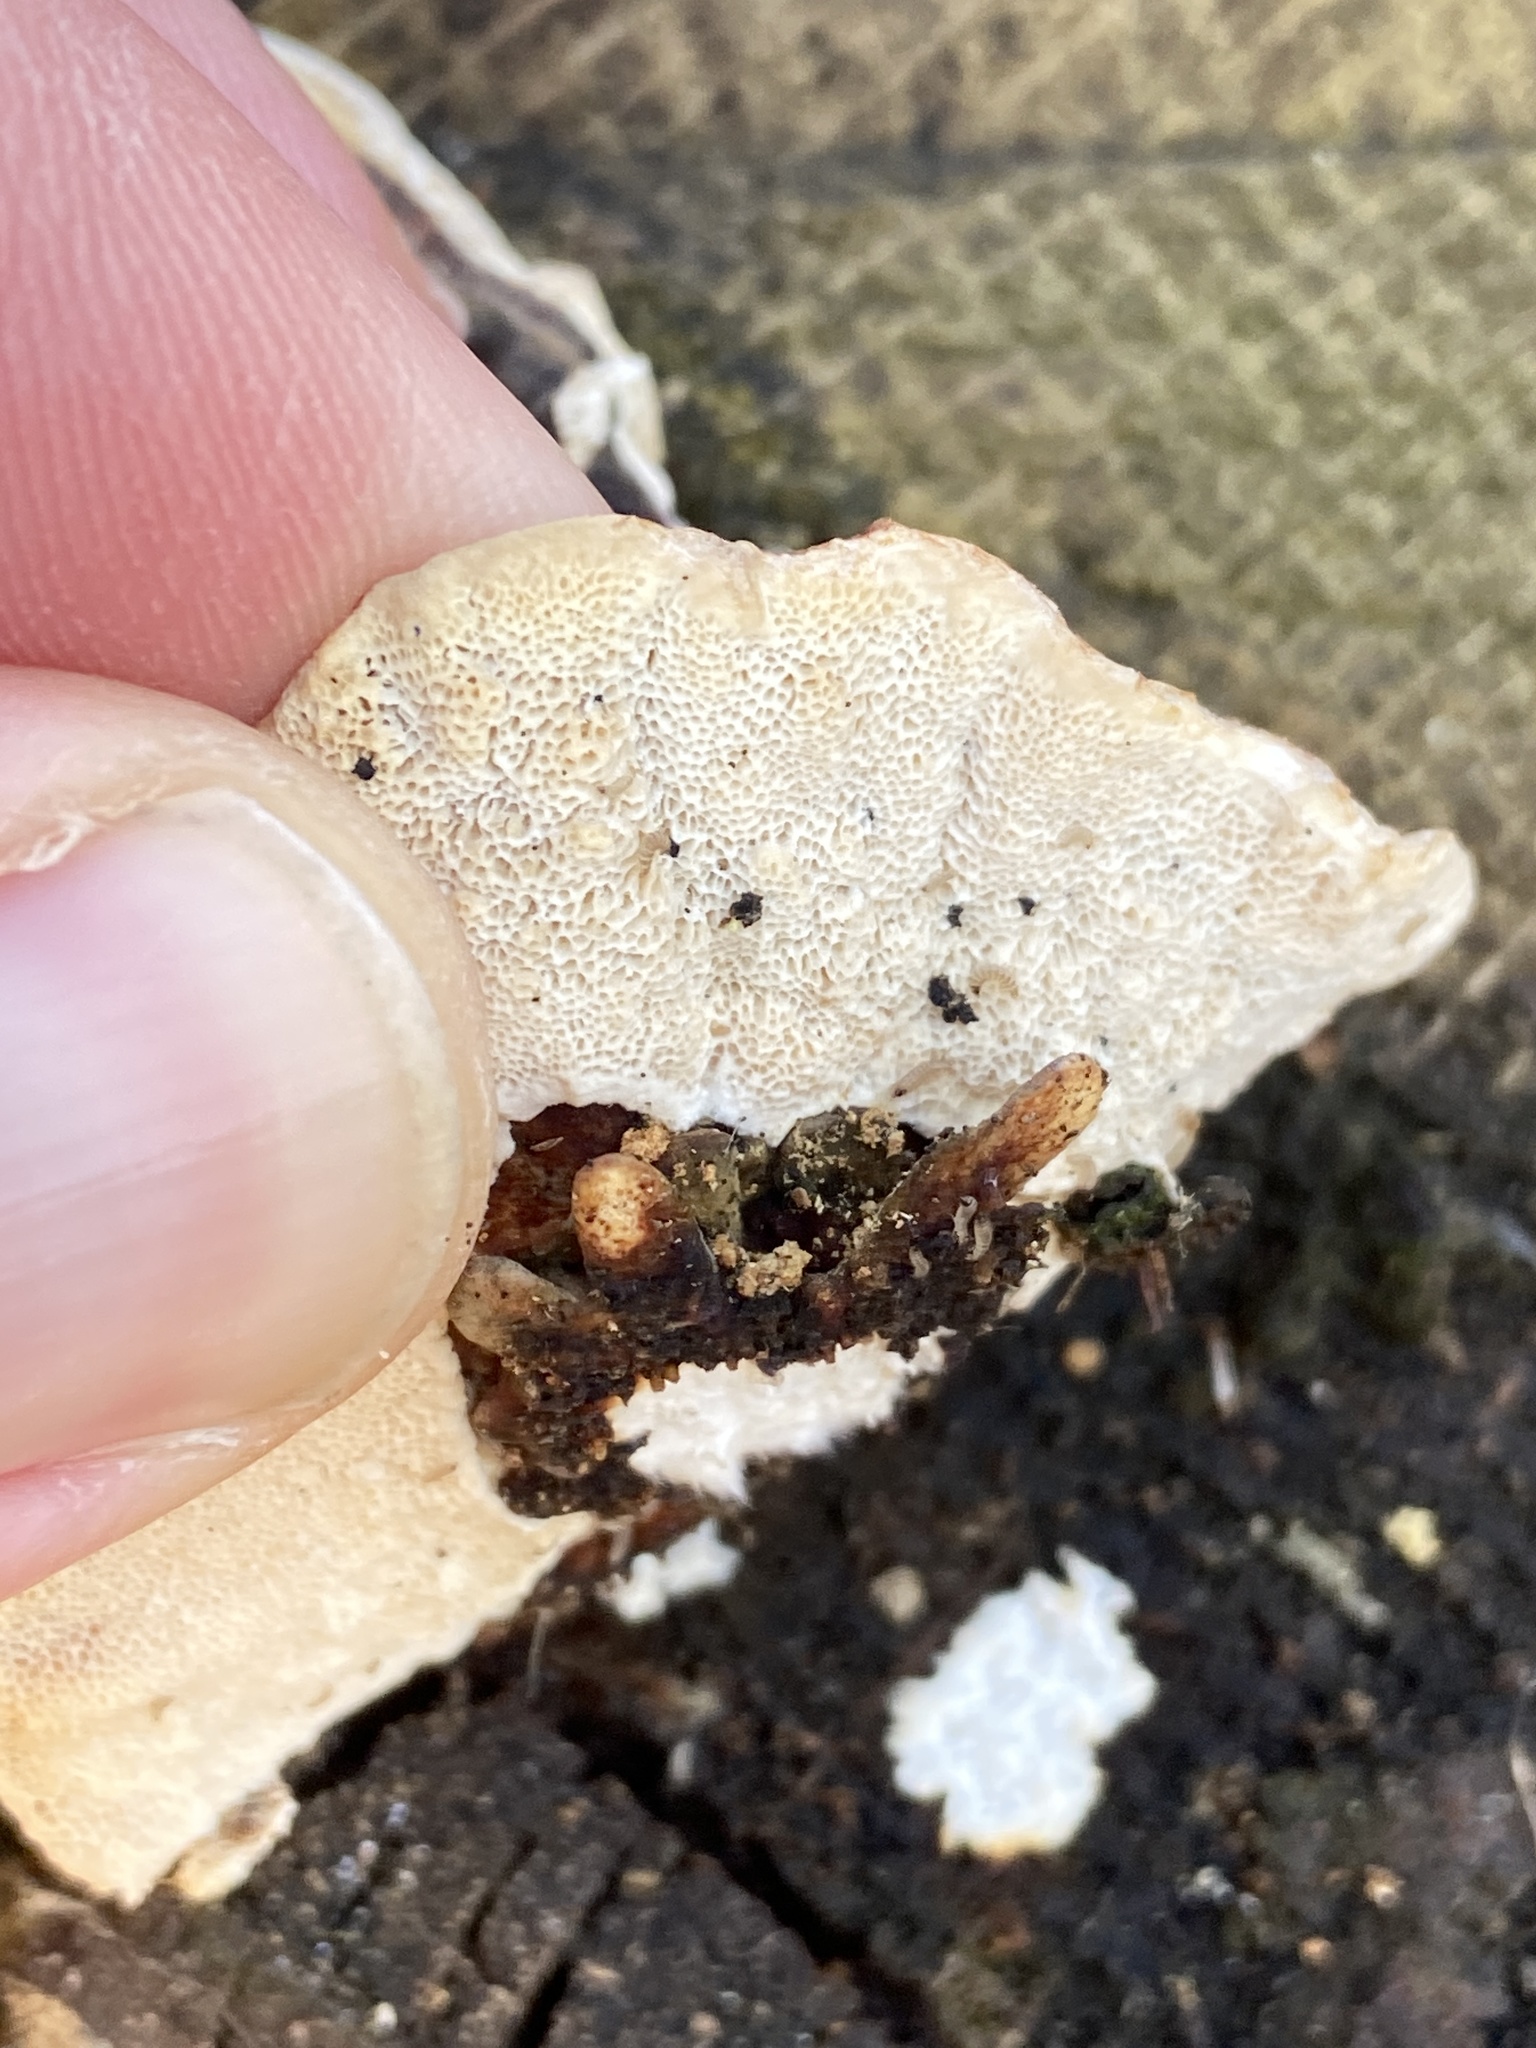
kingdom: Fungi
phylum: Basidiomycota
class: Agaricomycetes
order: Polyporales
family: Polyporaceae
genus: Trametes
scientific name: Trametes versicolor
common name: Turkeytail
